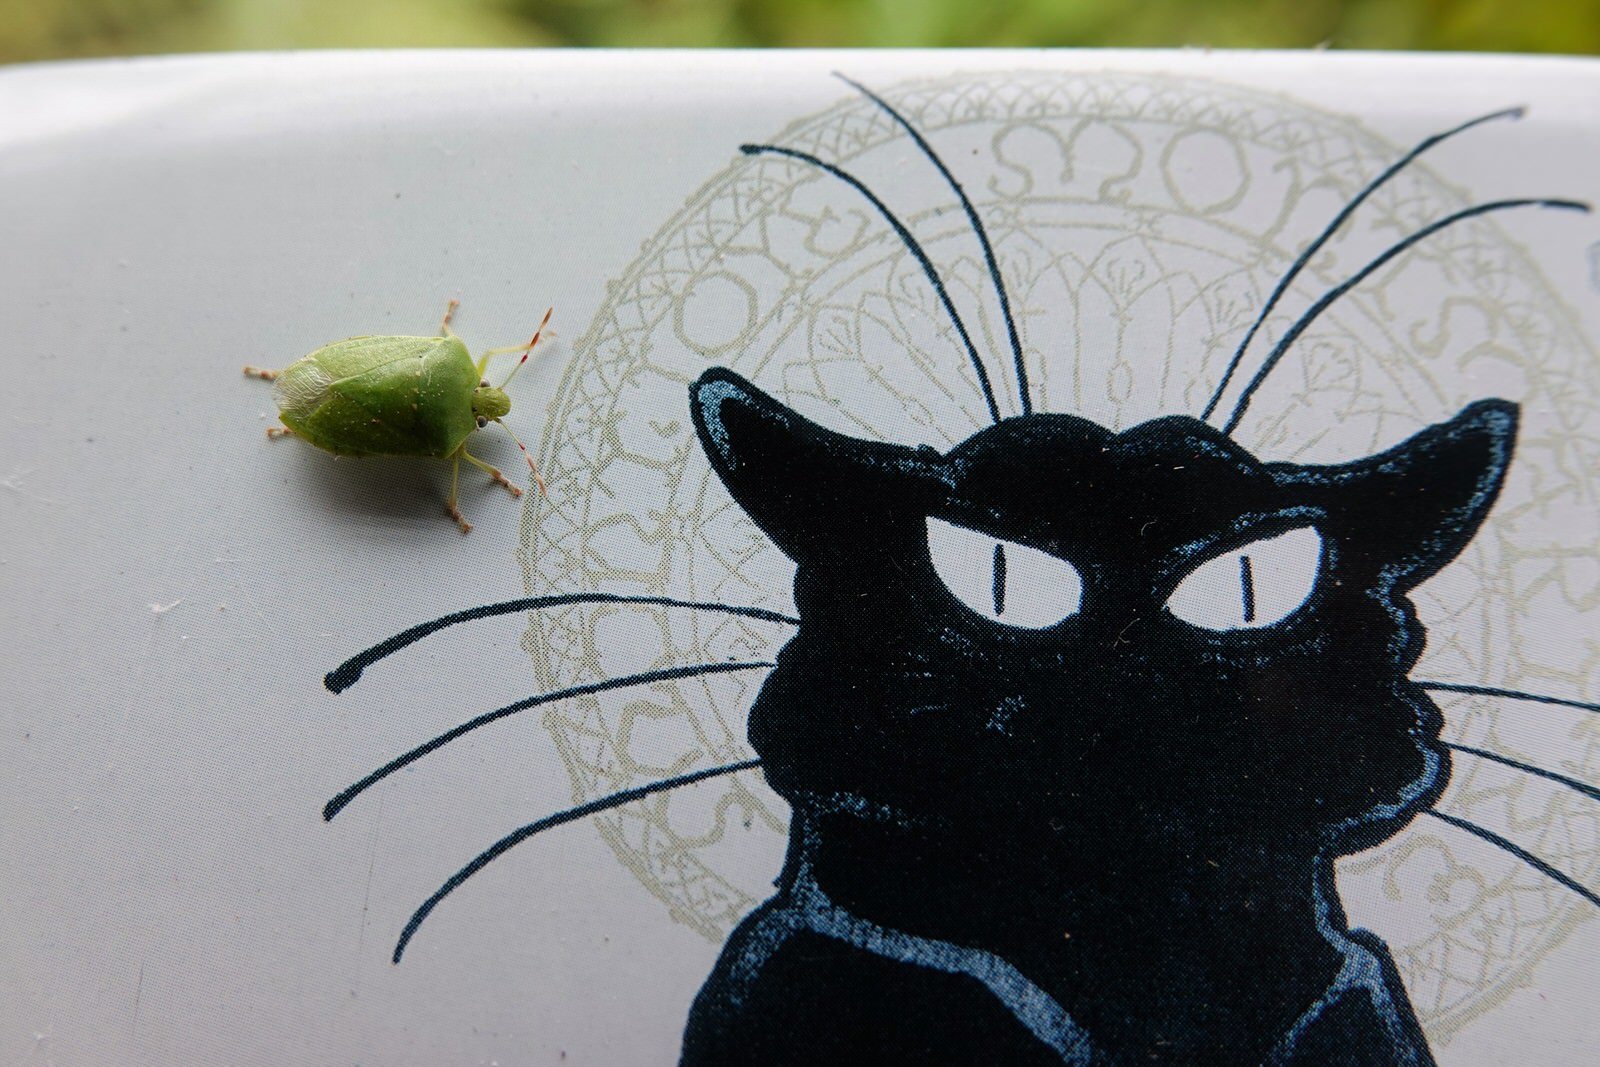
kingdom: Animalia
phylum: Arthropoda
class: Insecta
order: Hemiptera
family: Pentatomidae
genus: Nezara
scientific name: Nezara viridula
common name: Southern green stink bug
